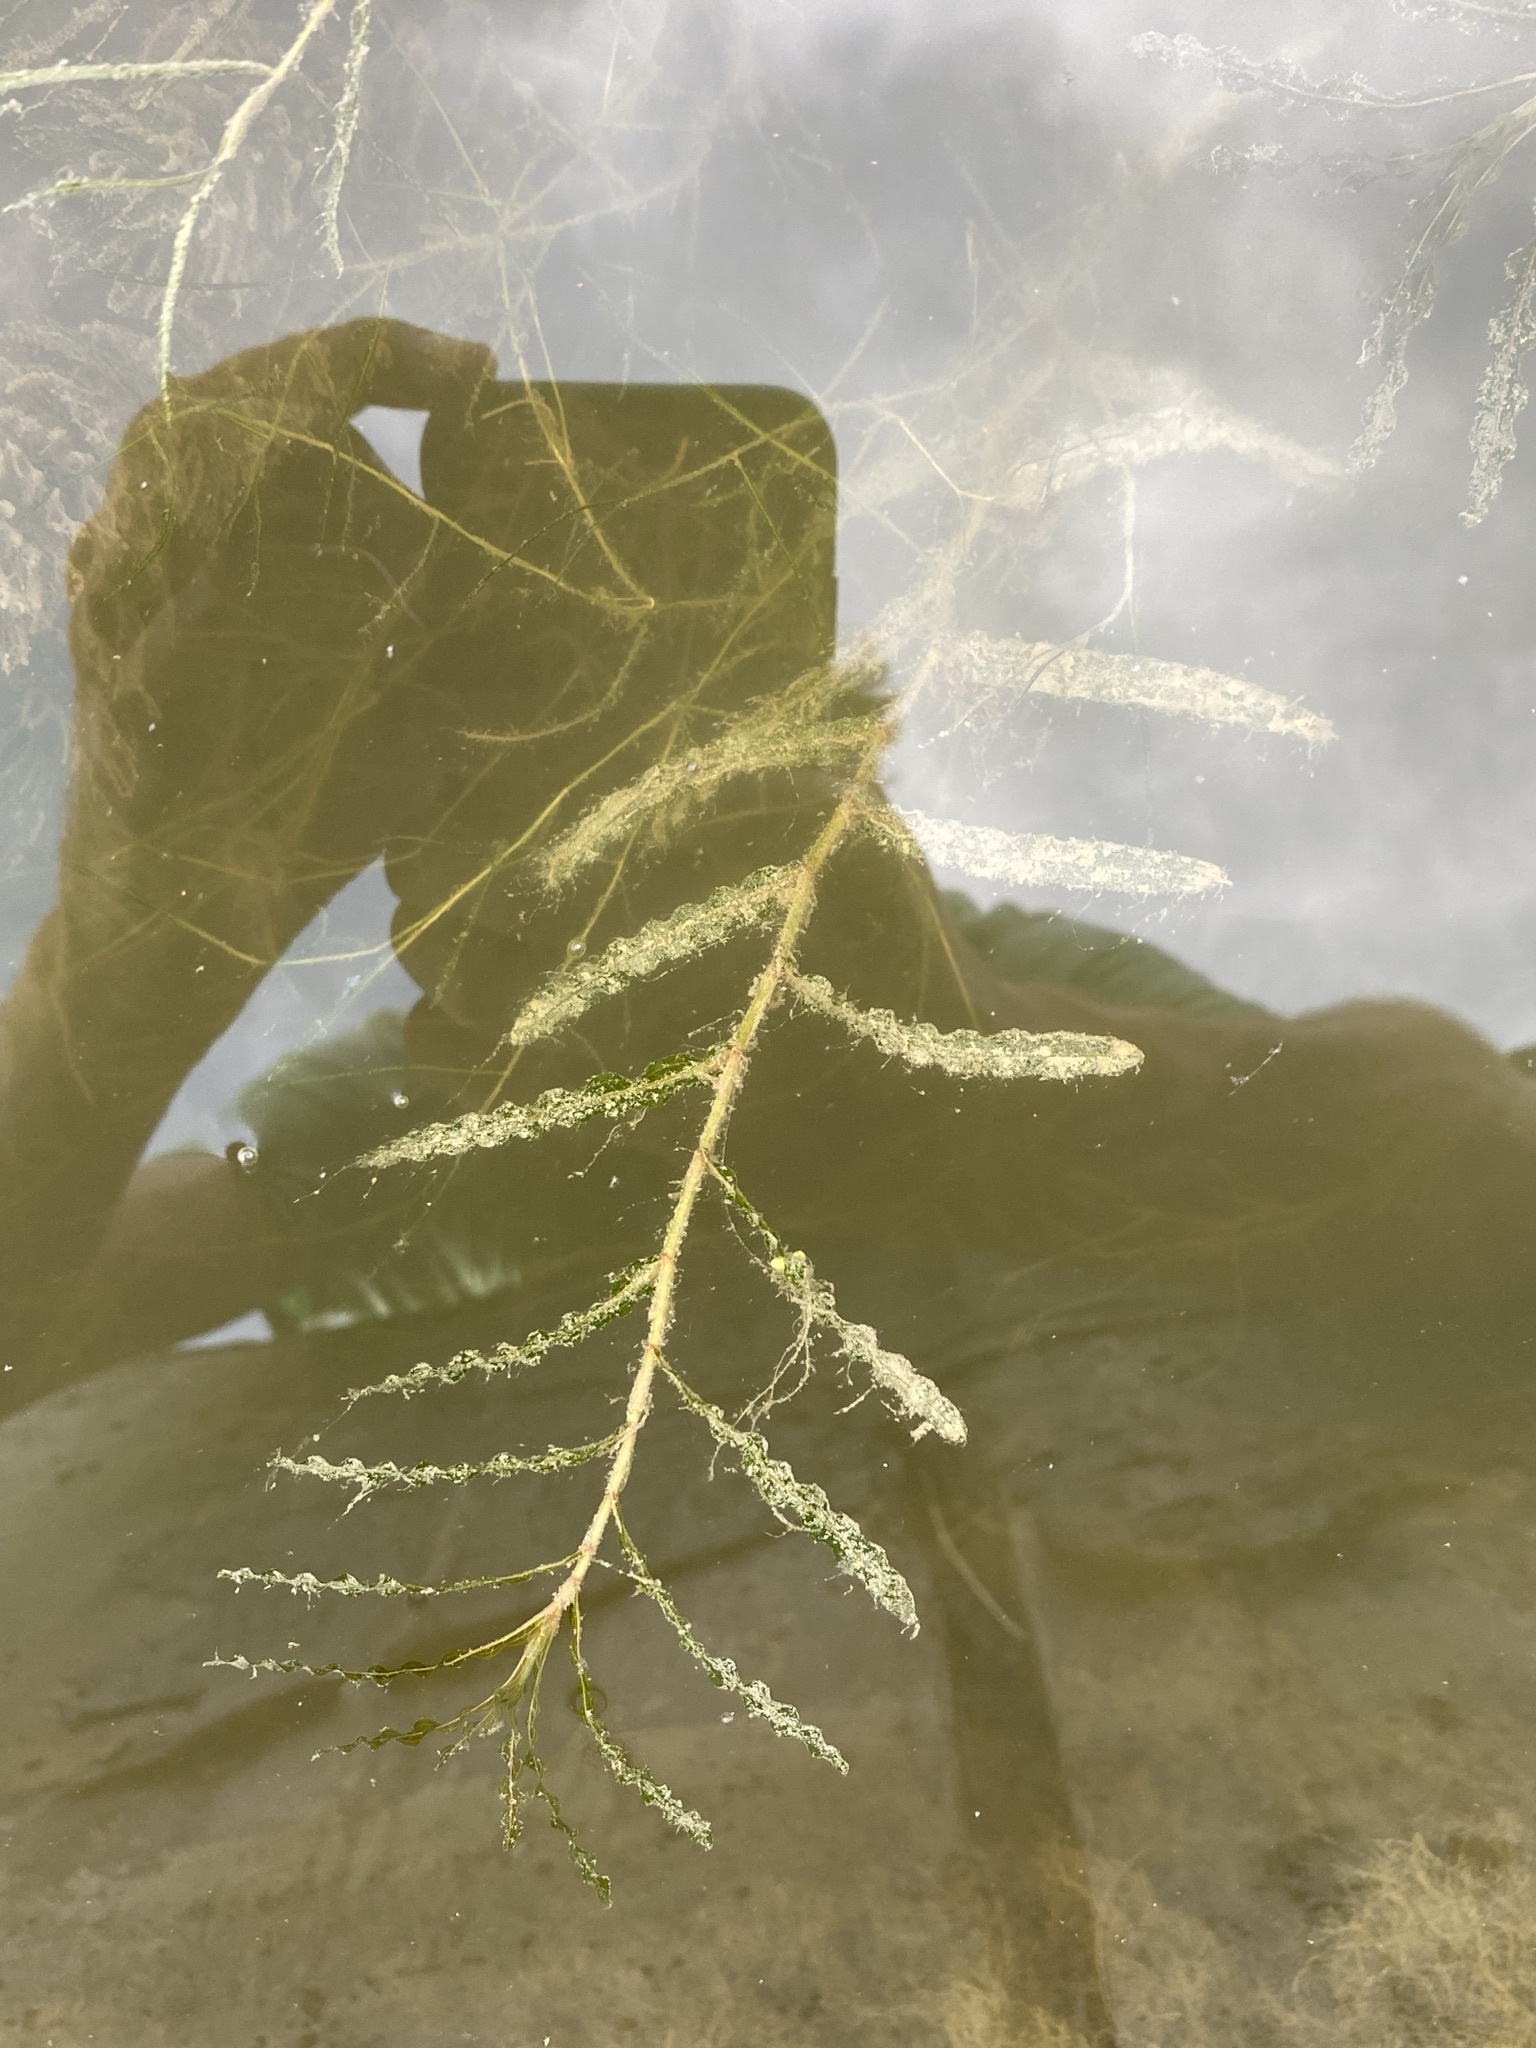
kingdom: Plantae
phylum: Tracheophyta
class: Liliopsida
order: Alismatales
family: Potamogetonaceae
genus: Potamogeton
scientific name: Potamogeton crispus
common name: Curled pondweed
